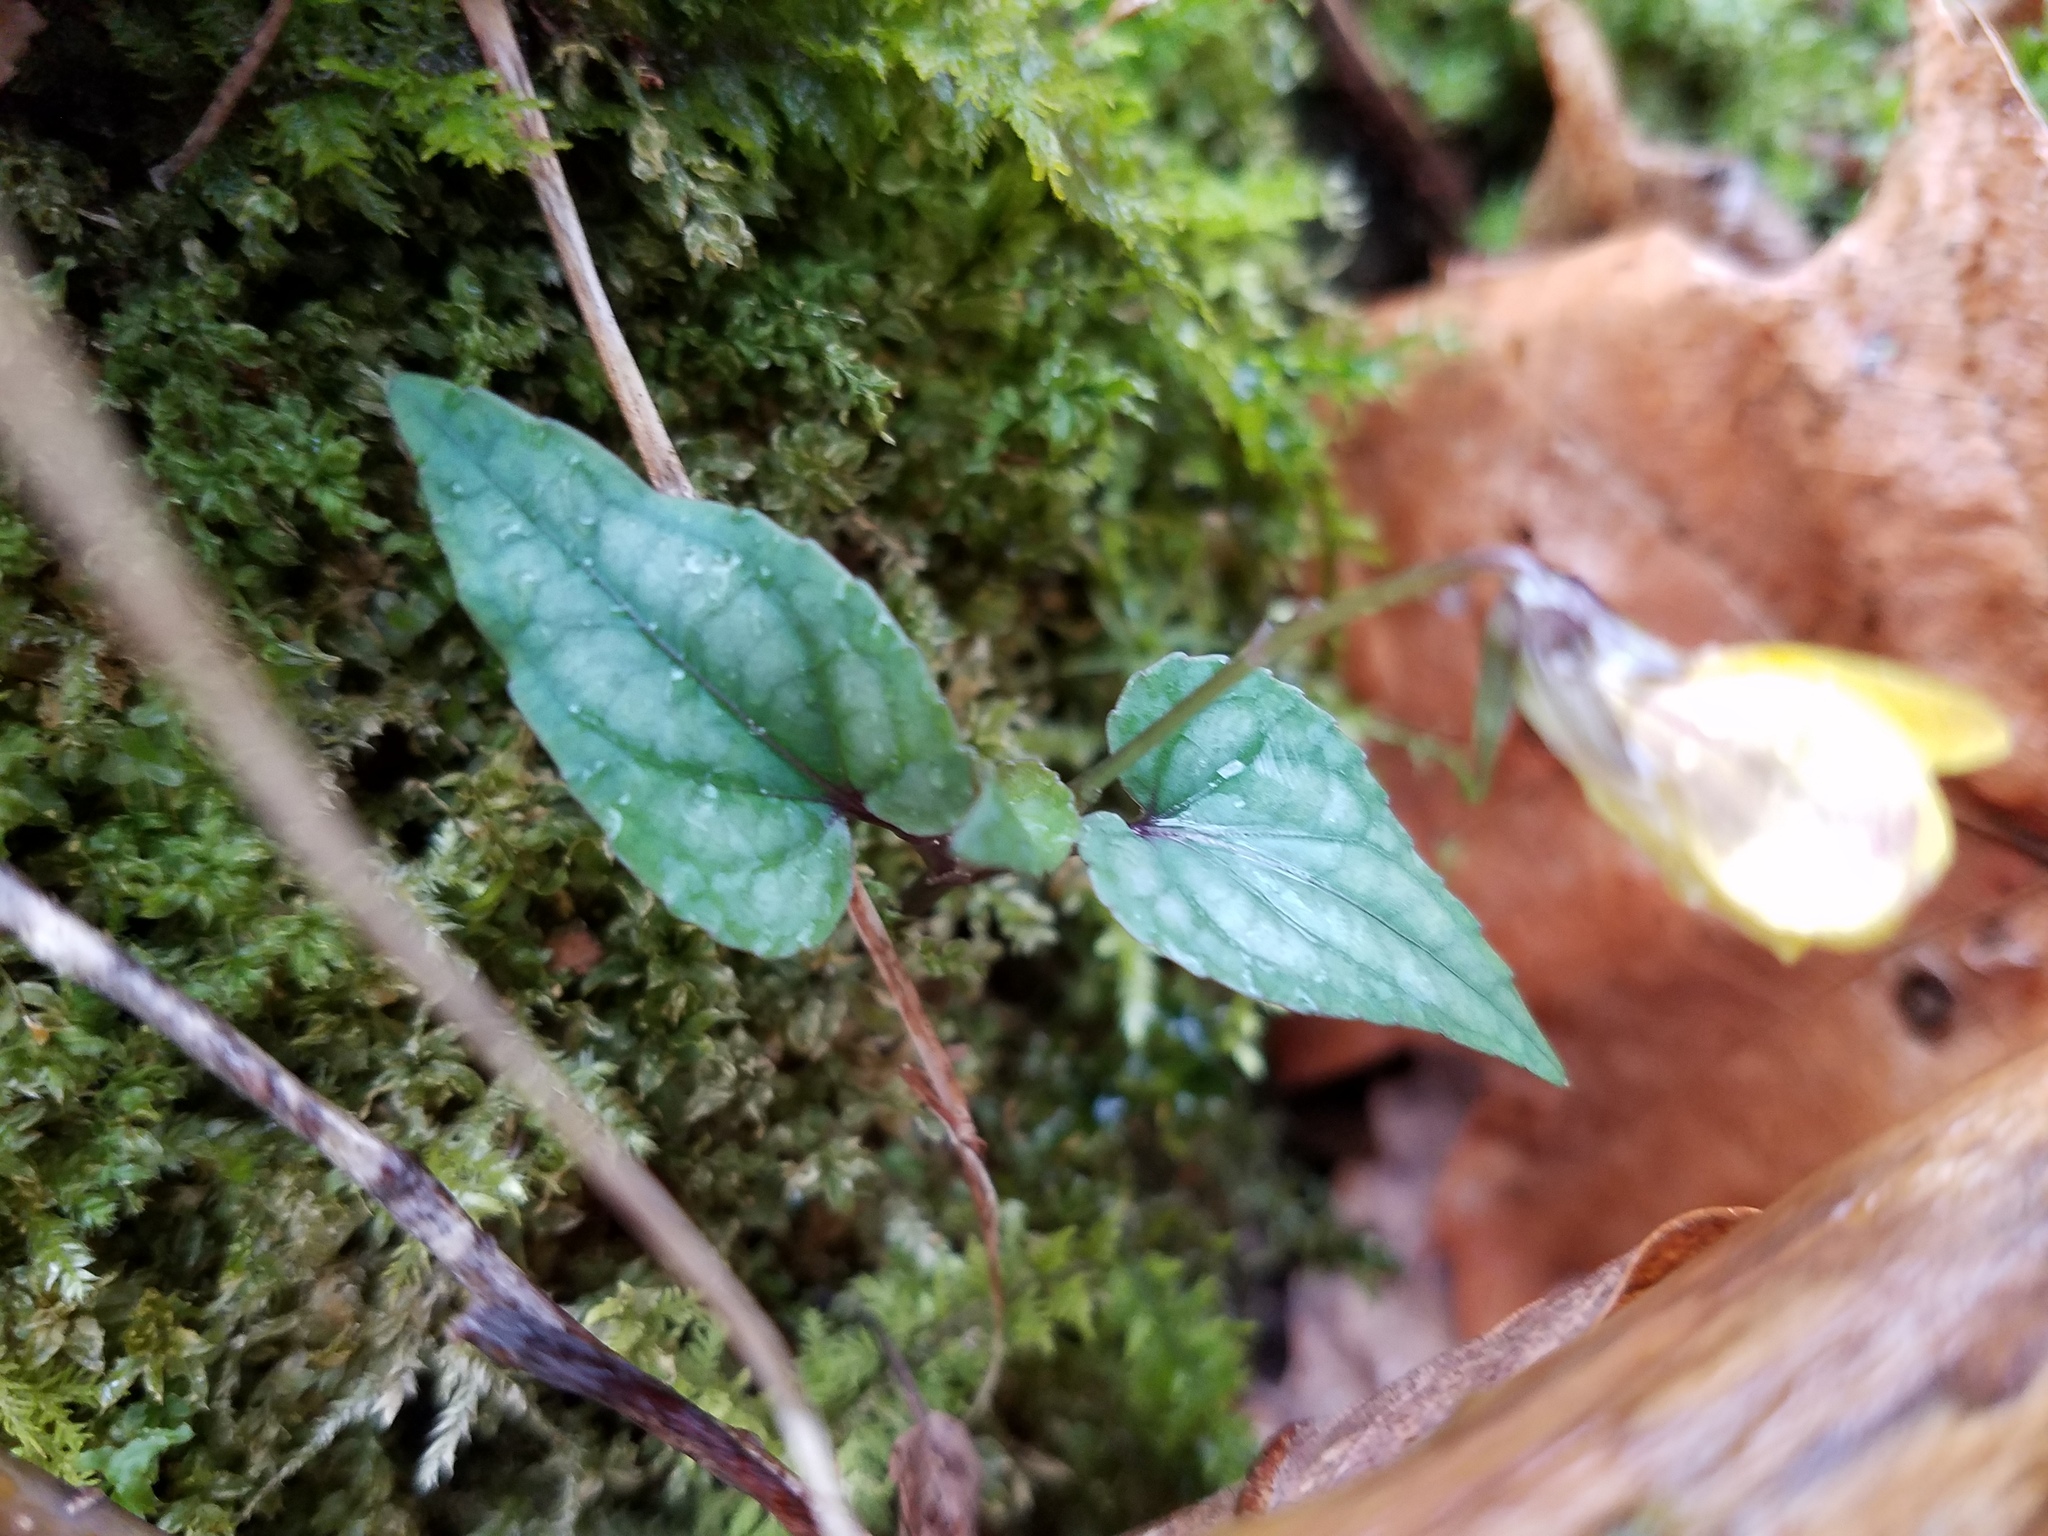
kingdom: Plantae
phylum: Tracheophyta
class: Magnoliopsida
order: Malpighiales
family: Violaceae
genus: Viola
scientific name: Viola hastata
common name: Spear-leaf violet
